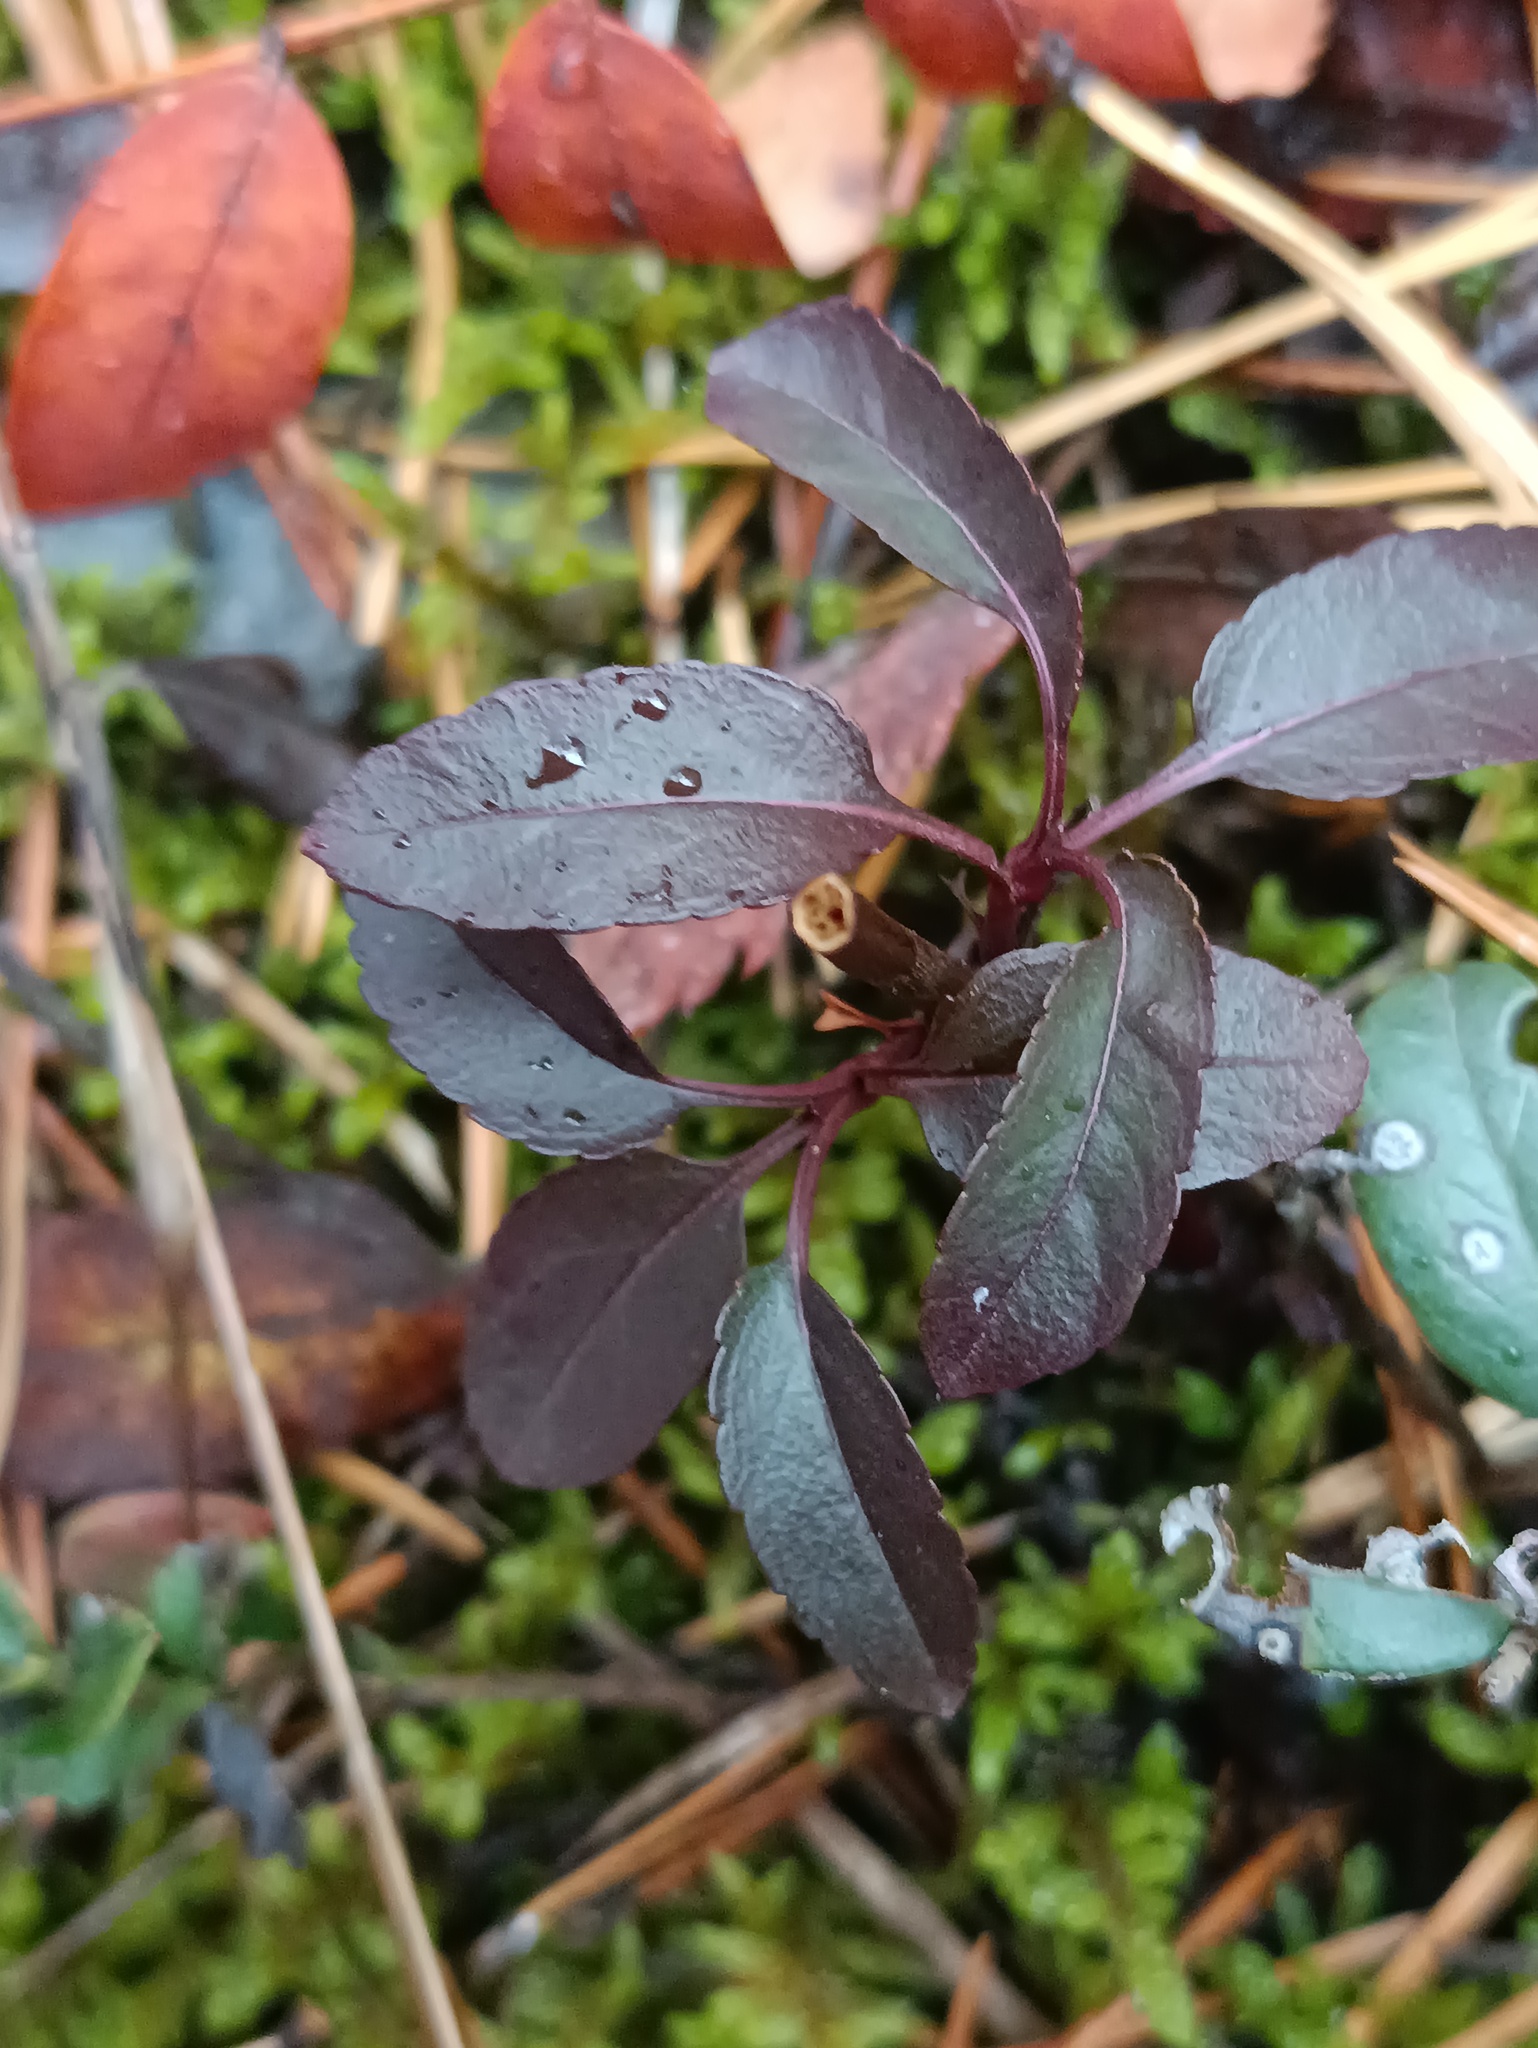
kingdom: Plantae
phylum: Tracheophyta
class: Magnoliopsida
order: Lamiales
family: Plantaginaceae
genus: Veronica
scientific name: Veronica spicata
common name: Spiked speedwell
